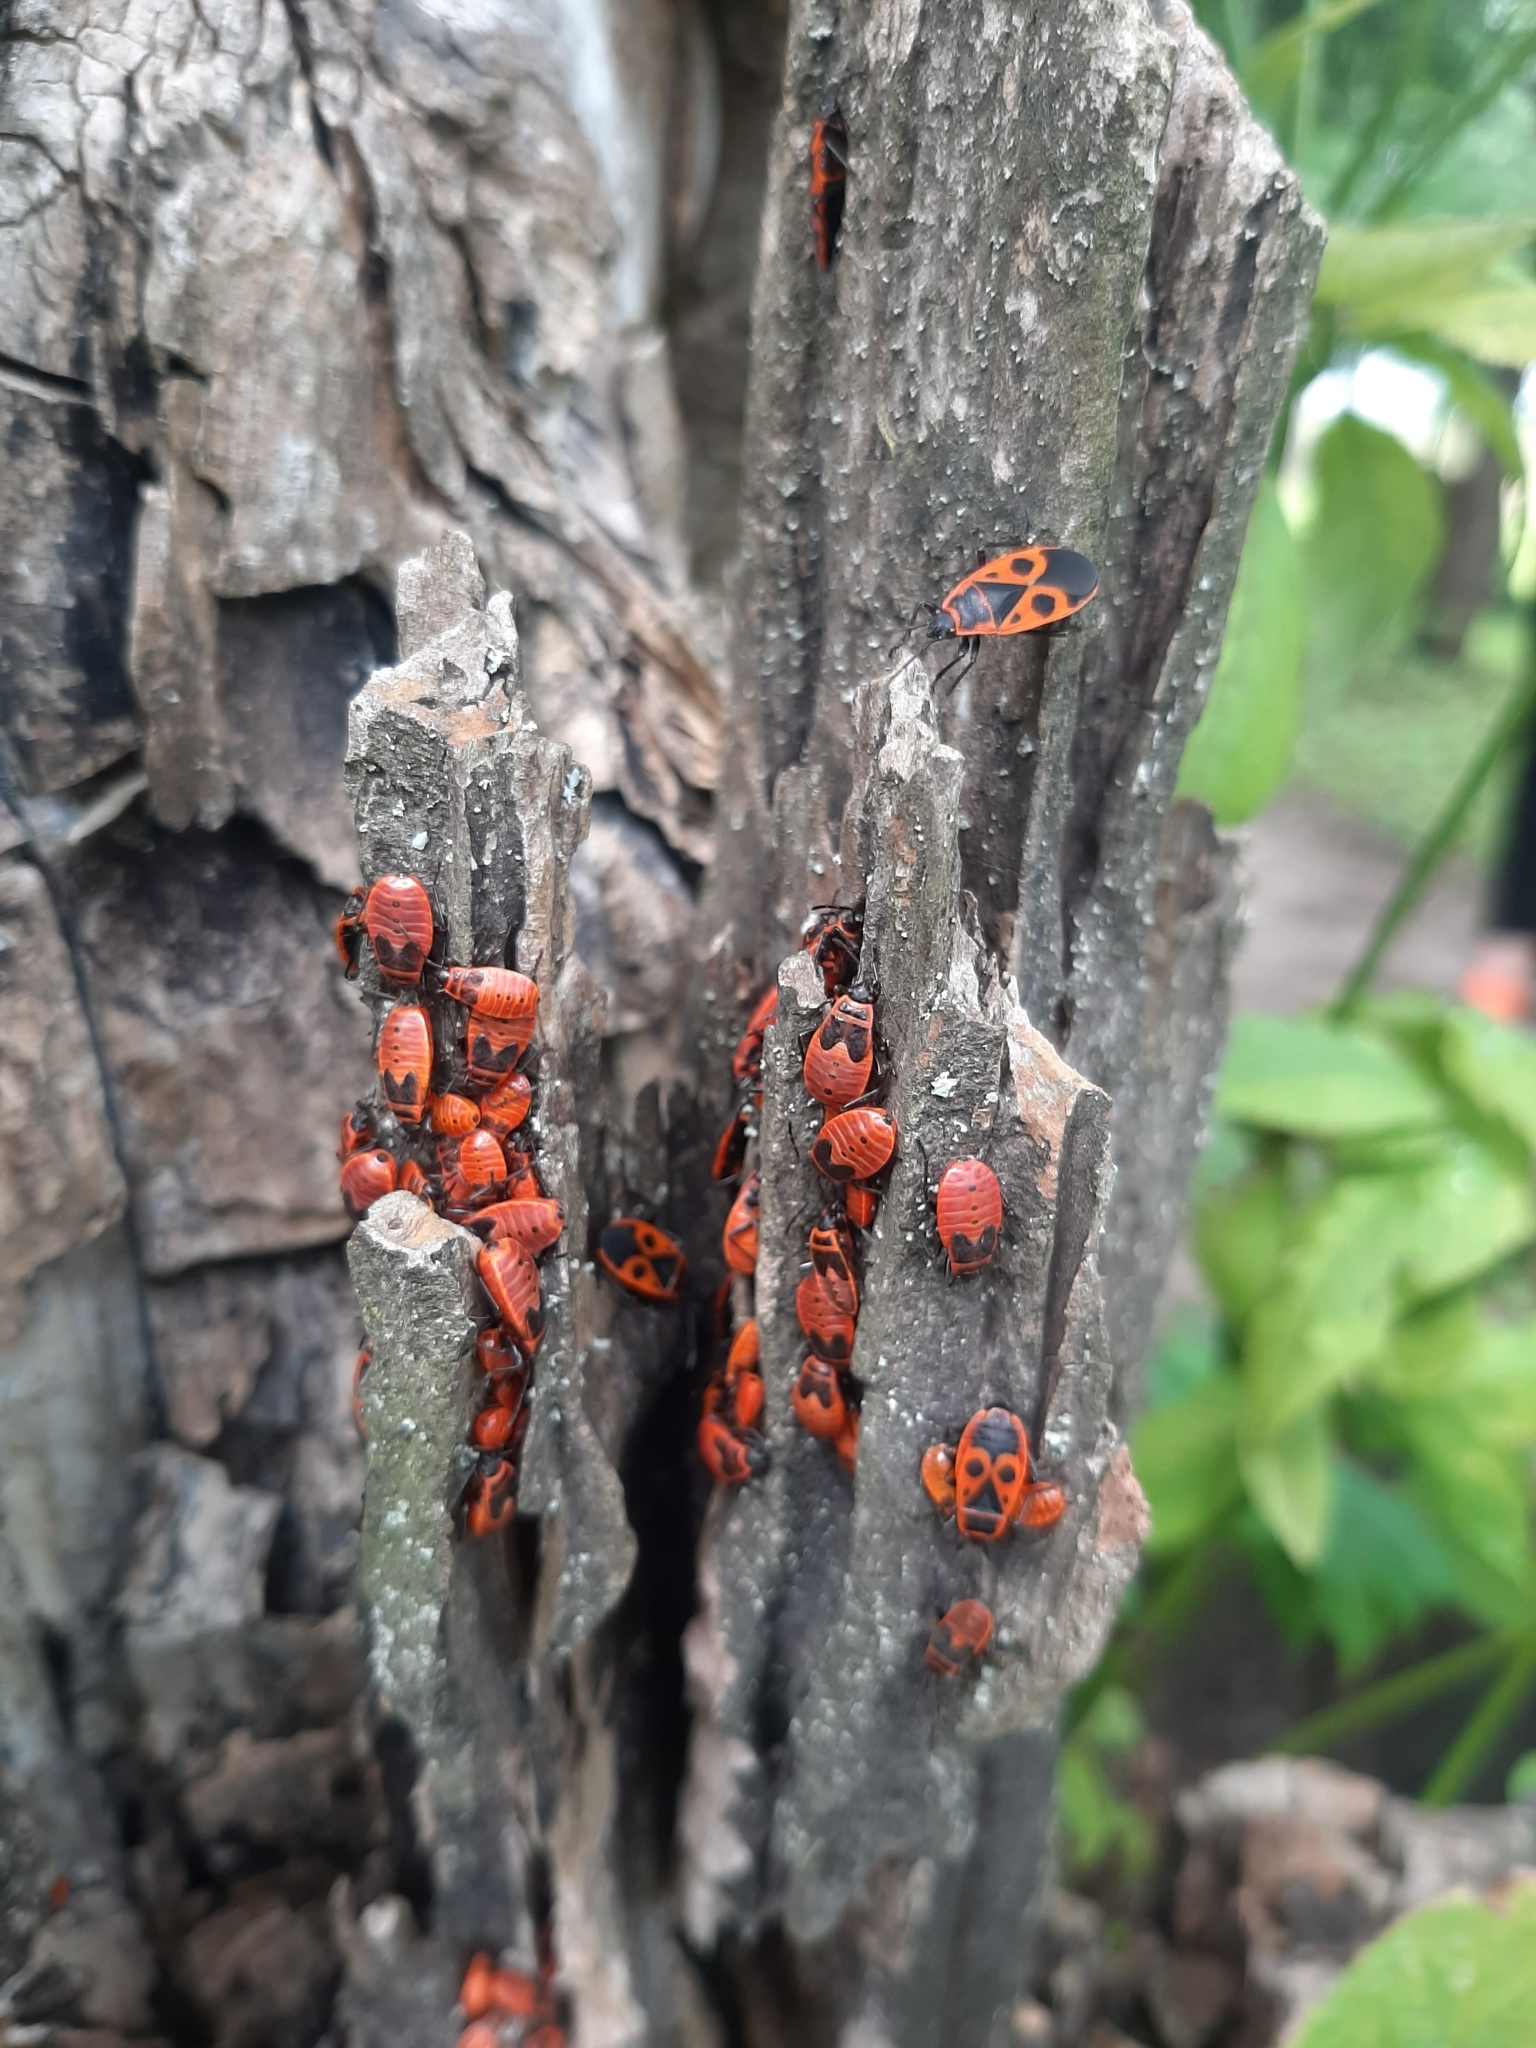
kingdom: Animalia
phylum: Arthropoda
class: Insecta
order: Hemiptera
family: Pyrrhocoridae
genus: Pyrrhocoris
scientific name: Pyrrhocoris apterus
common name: Firebug
